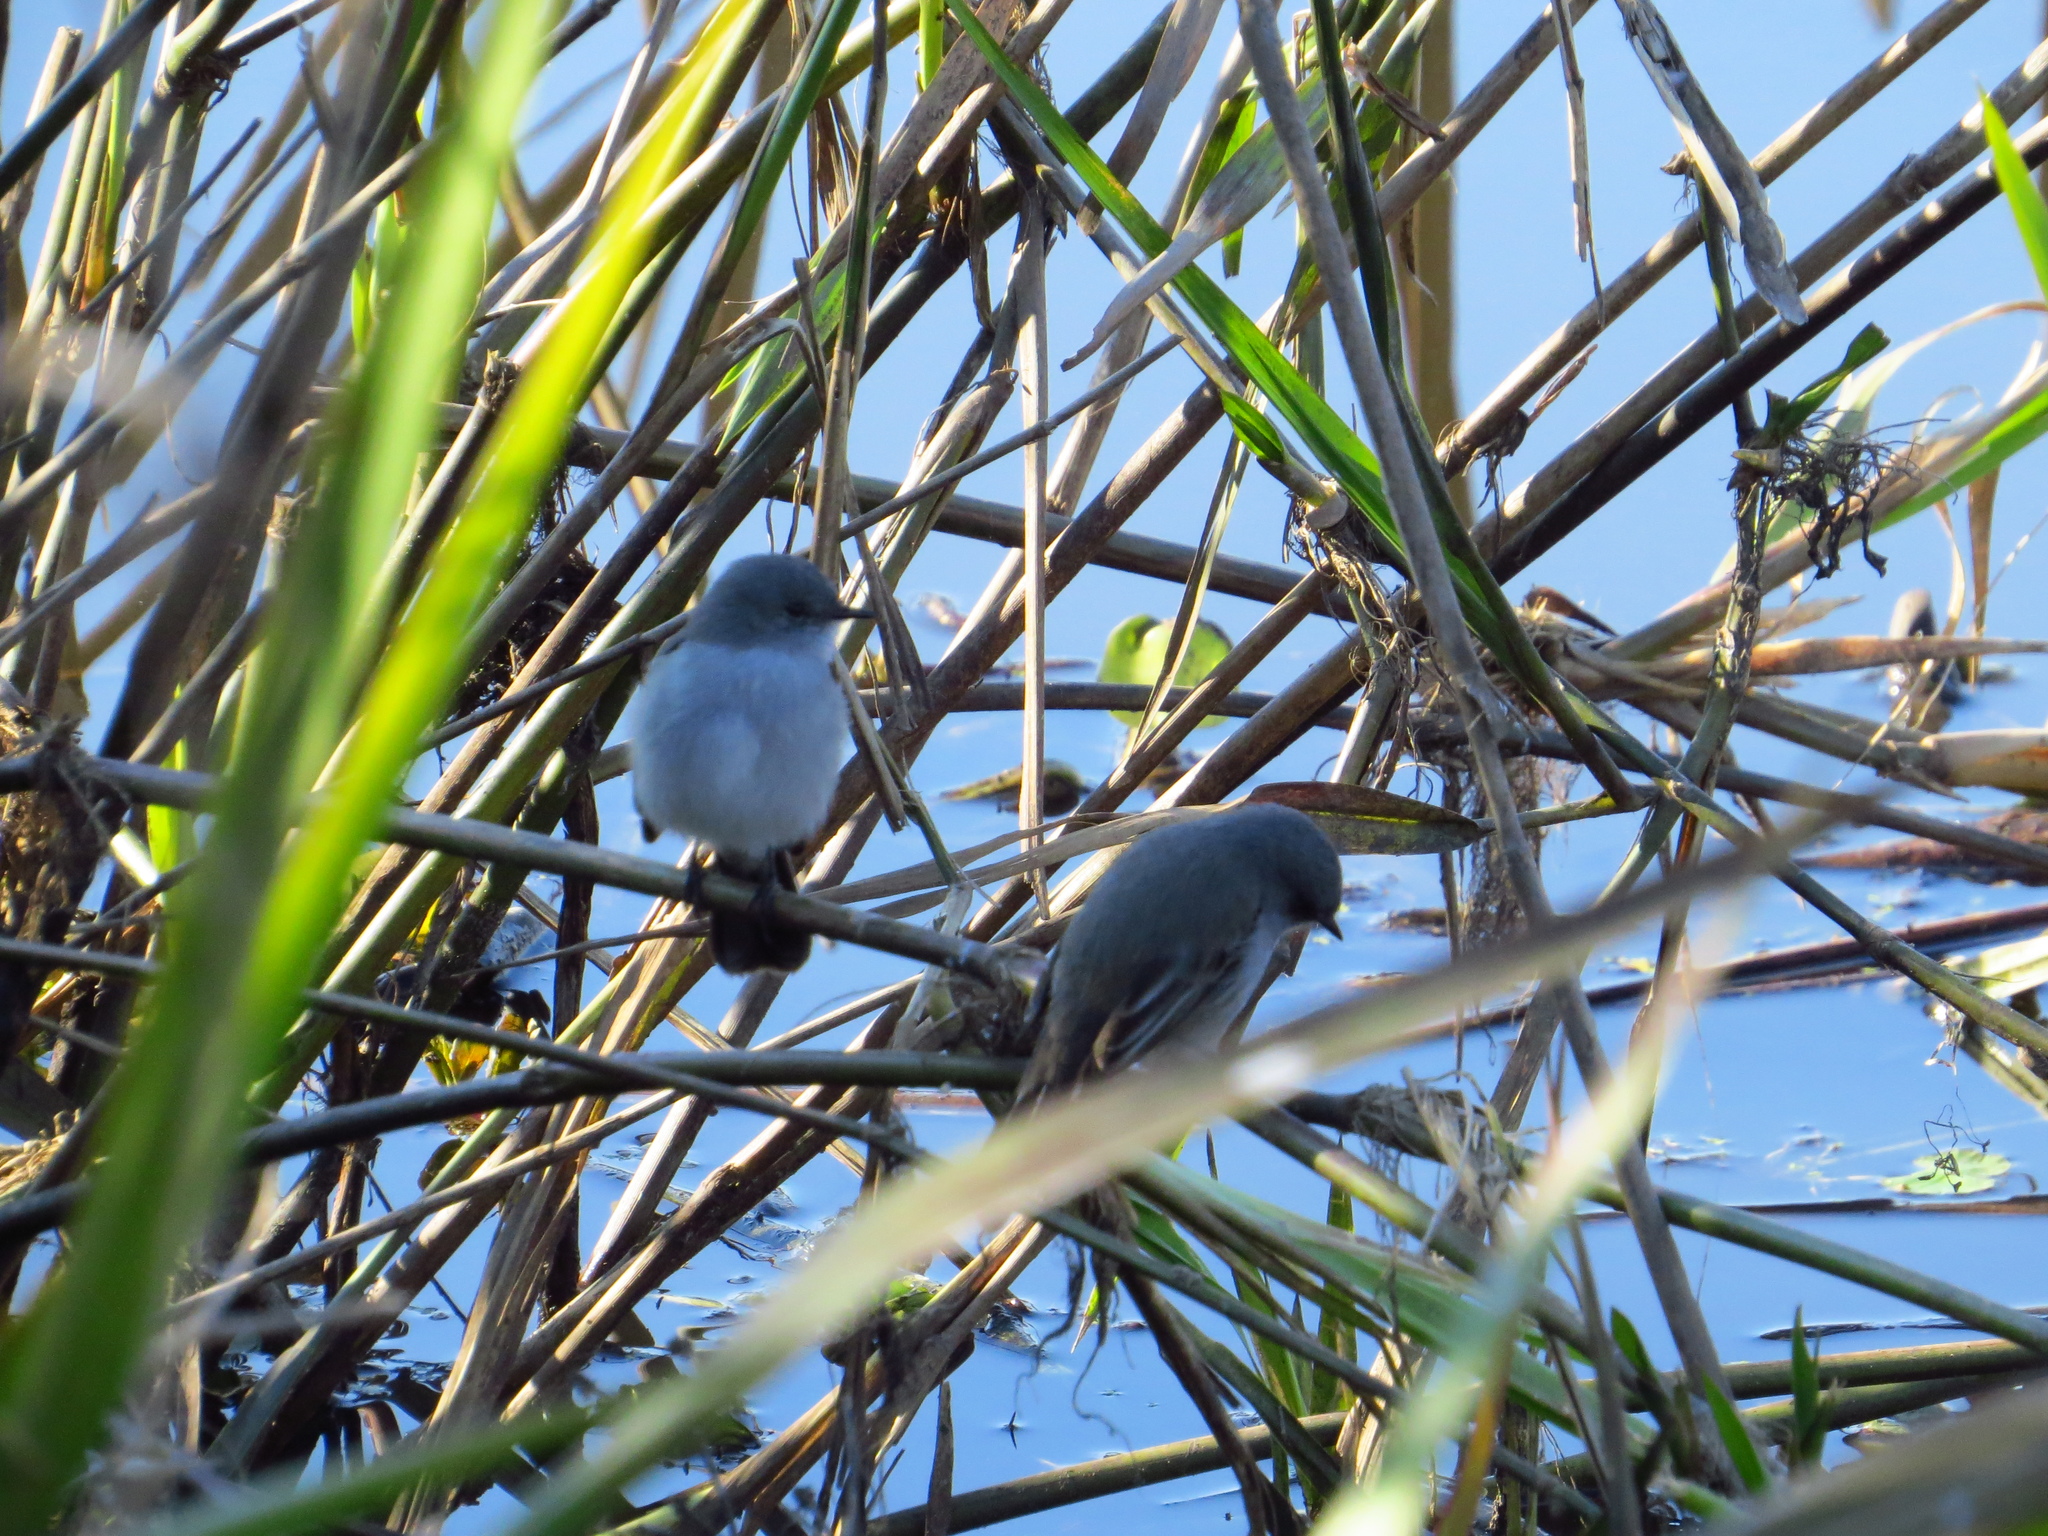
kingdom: Animalia
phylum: Chordata
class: Aves
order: Passeriformes
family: Tyrannidae
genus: Serpophaga
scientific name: Serpophaga nigricans
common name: Sooty tyrannulet
